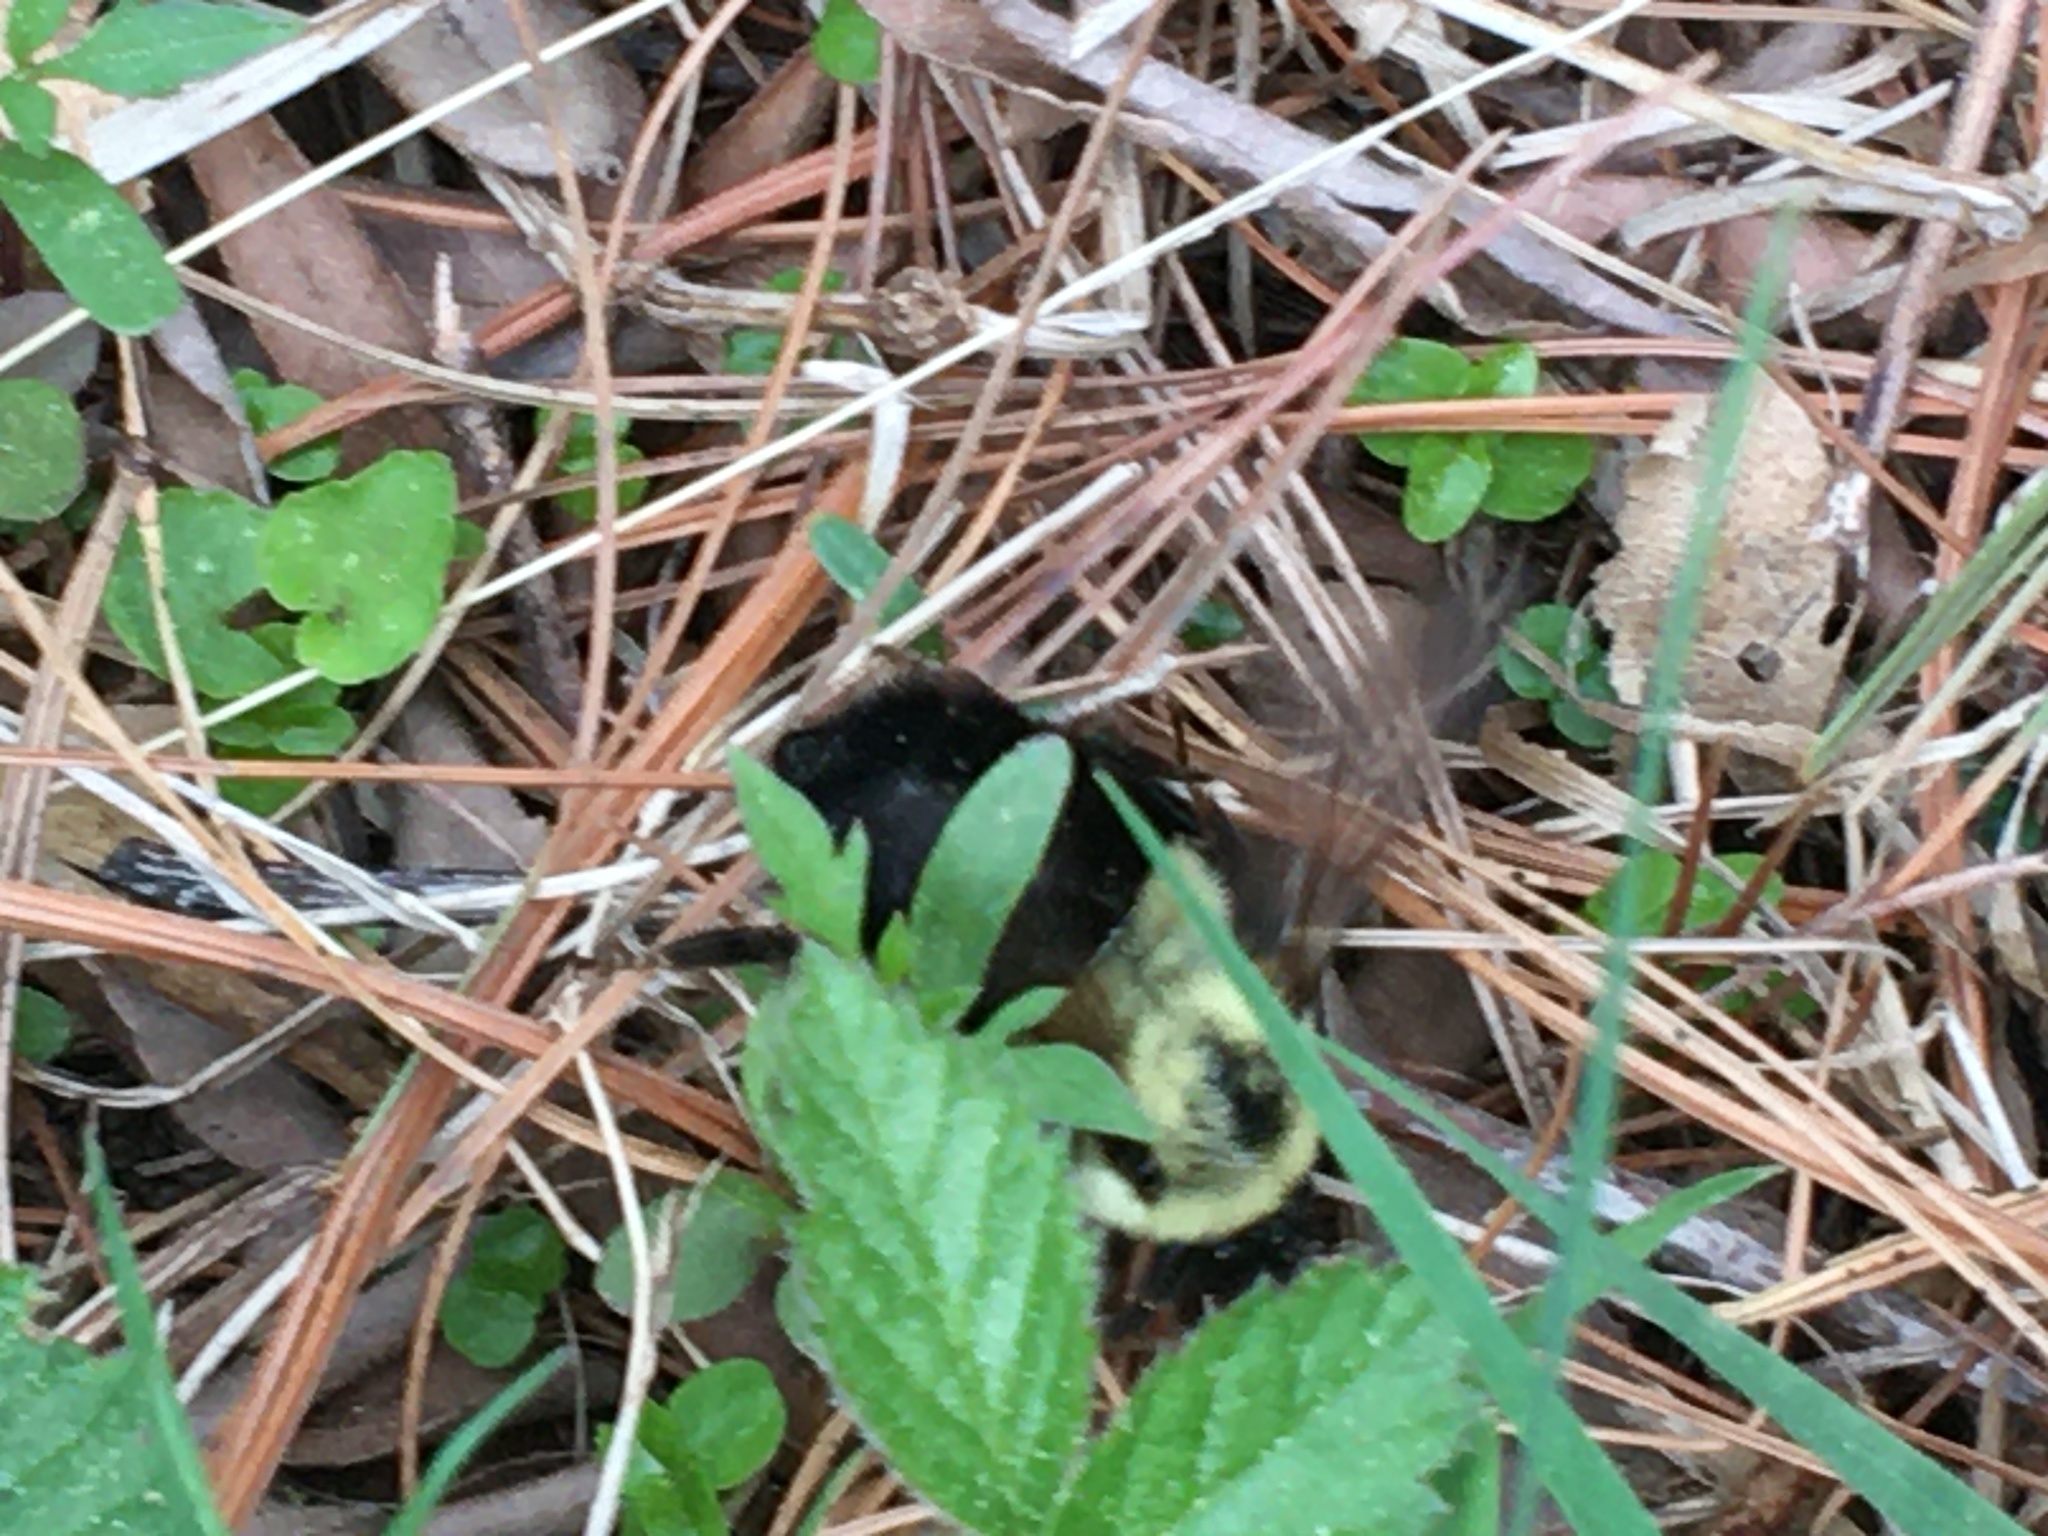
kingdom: Animalia
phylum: Arthropoda
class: Insecta
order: Hymenoptera
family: Apidae
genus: Bombus
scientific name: Bombus impatiens
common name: Common eastern bumble bee
